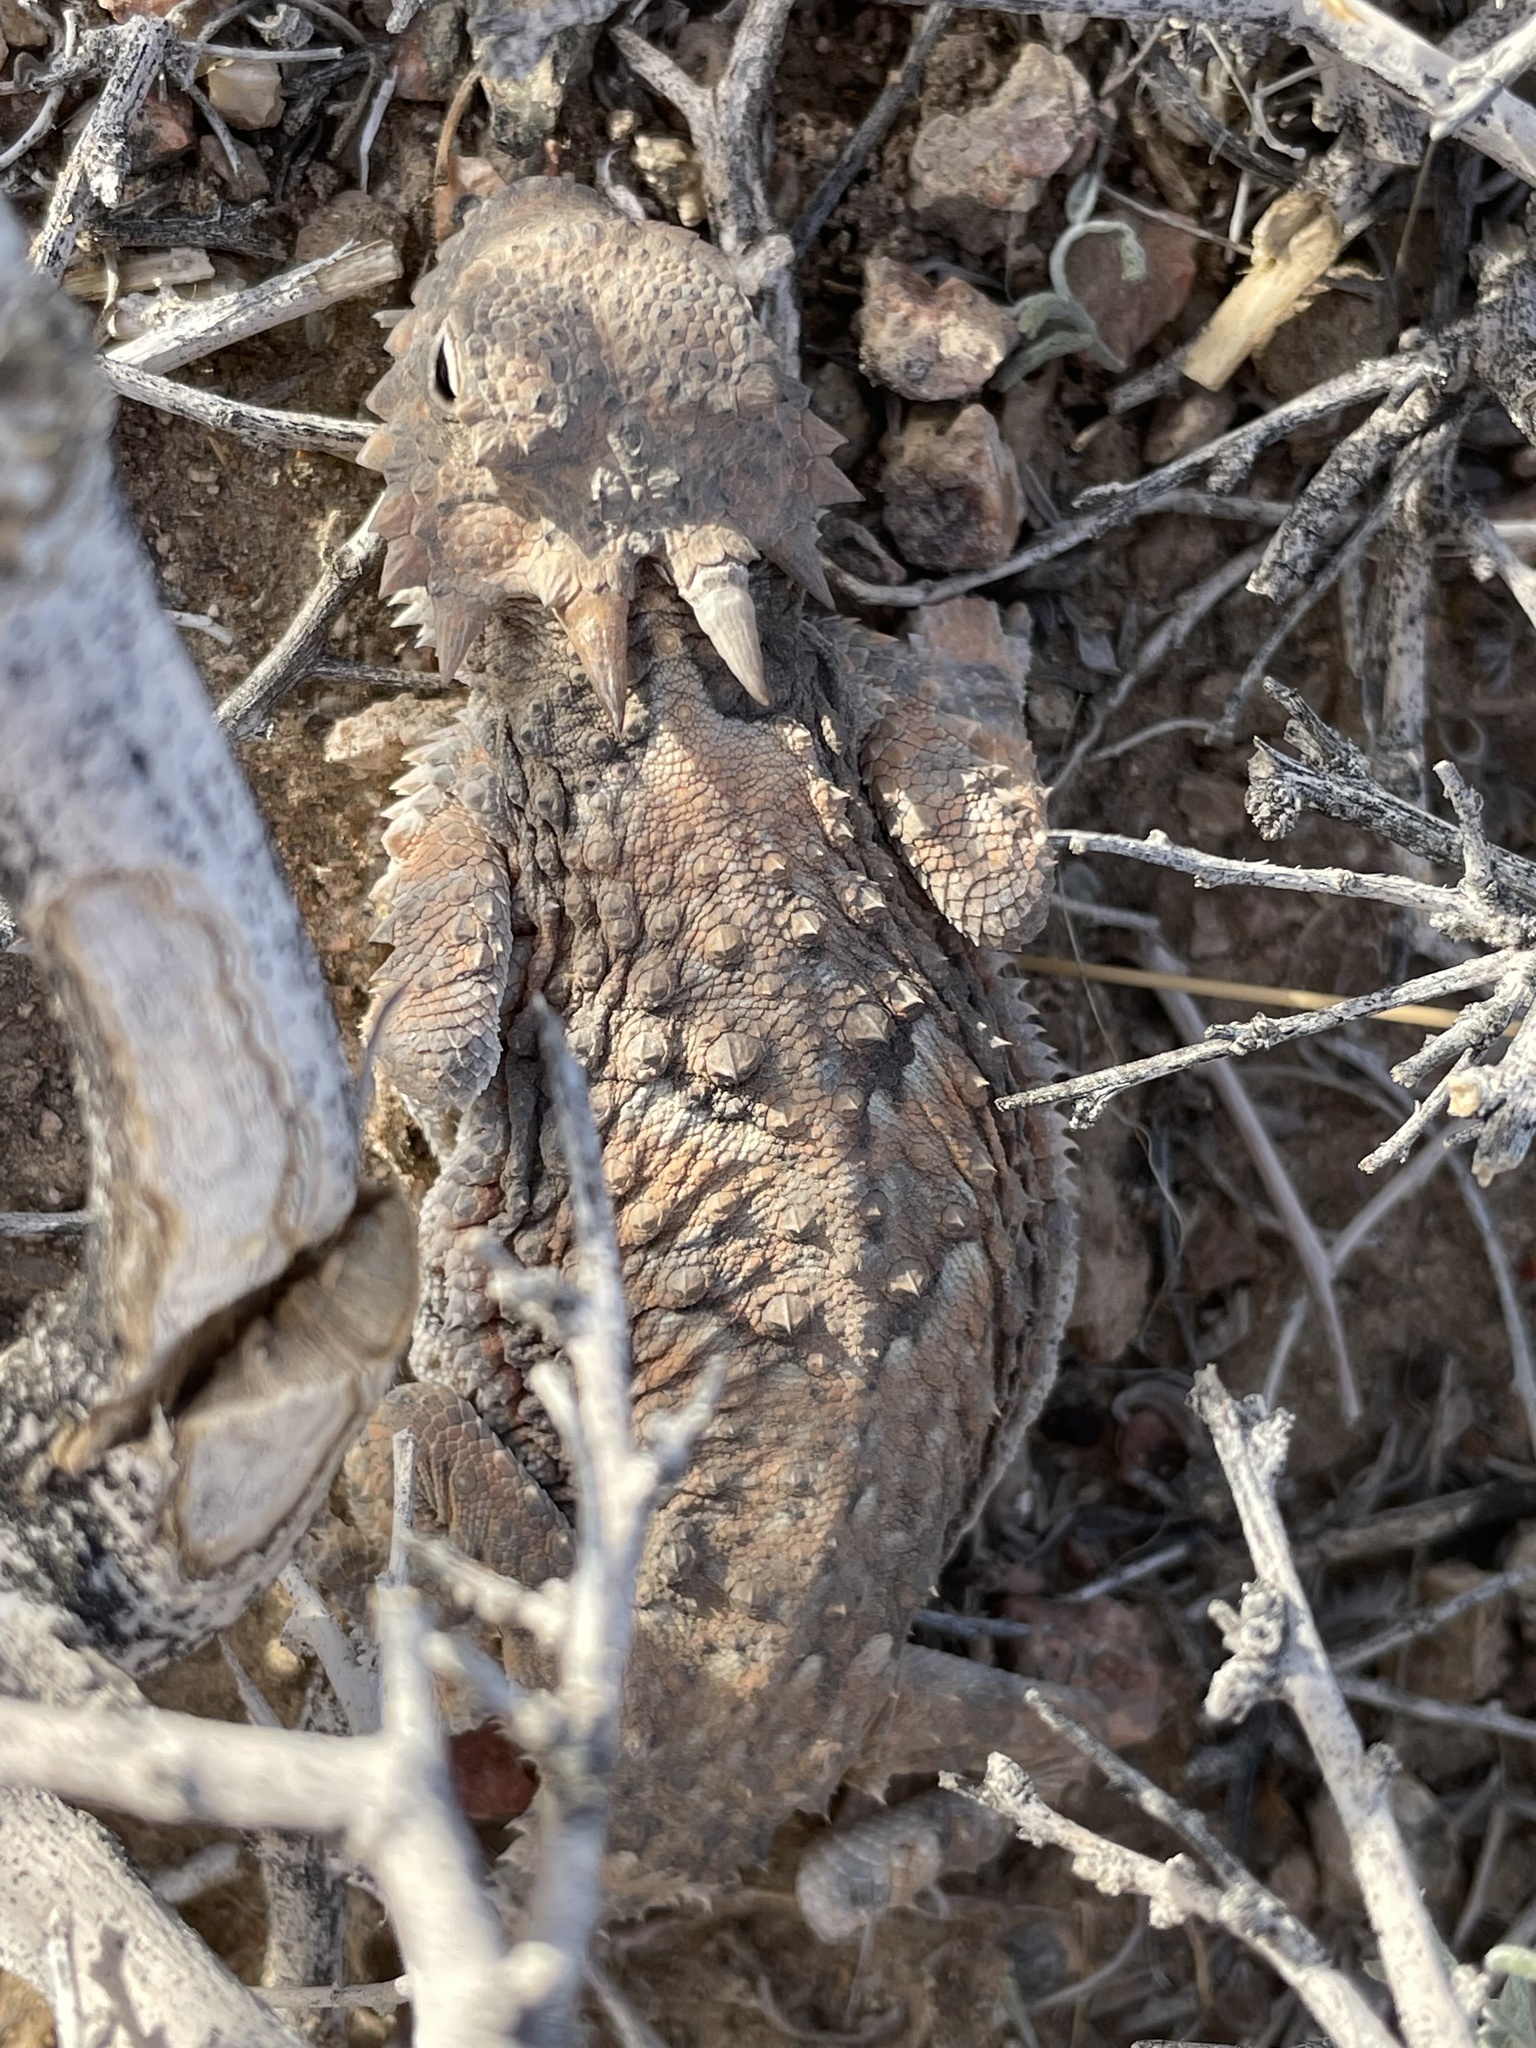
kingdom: Animalia
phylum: Chordata
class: Squamata
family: Phrynosomatidae
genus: Phrynosoma
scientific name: Phrynosoma platyrhinos
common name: Desert horned lizard
